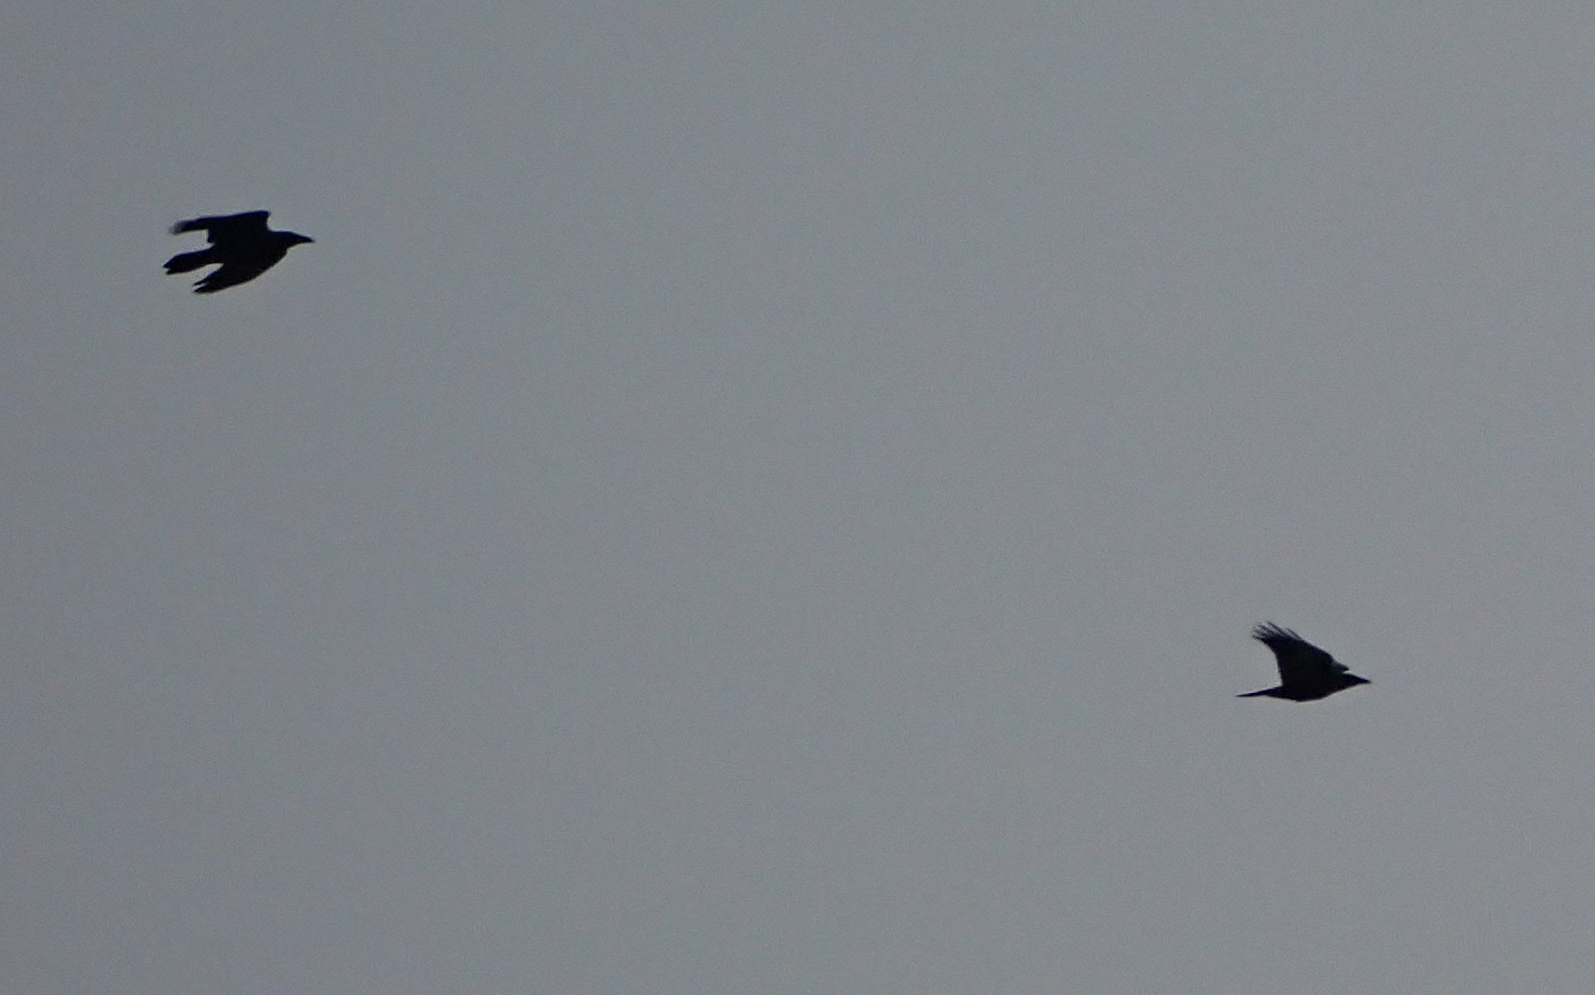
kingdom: Animalia
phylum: Chordata
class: Aves
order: Passeriformes
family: Corvidae
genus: Corvus
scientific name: Corvus corax
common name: Common raven
